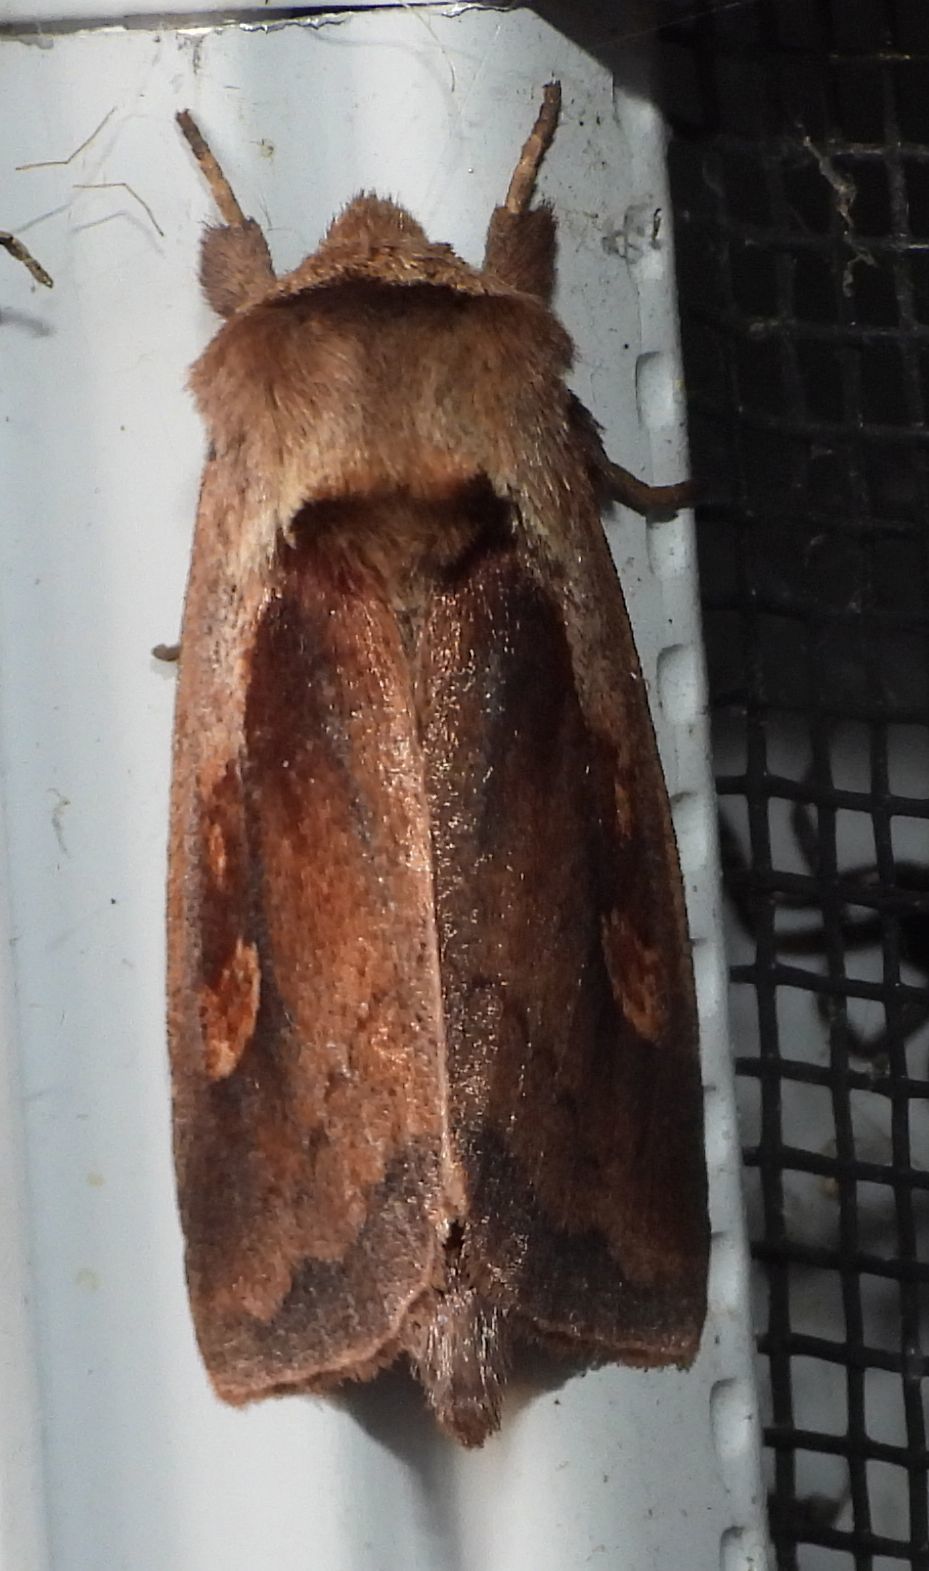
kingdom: Animalia
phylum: Arthropoda
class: Insecta
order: Lepidoptera
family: Noctuidae
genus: Bellura
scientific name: Bellura densa
